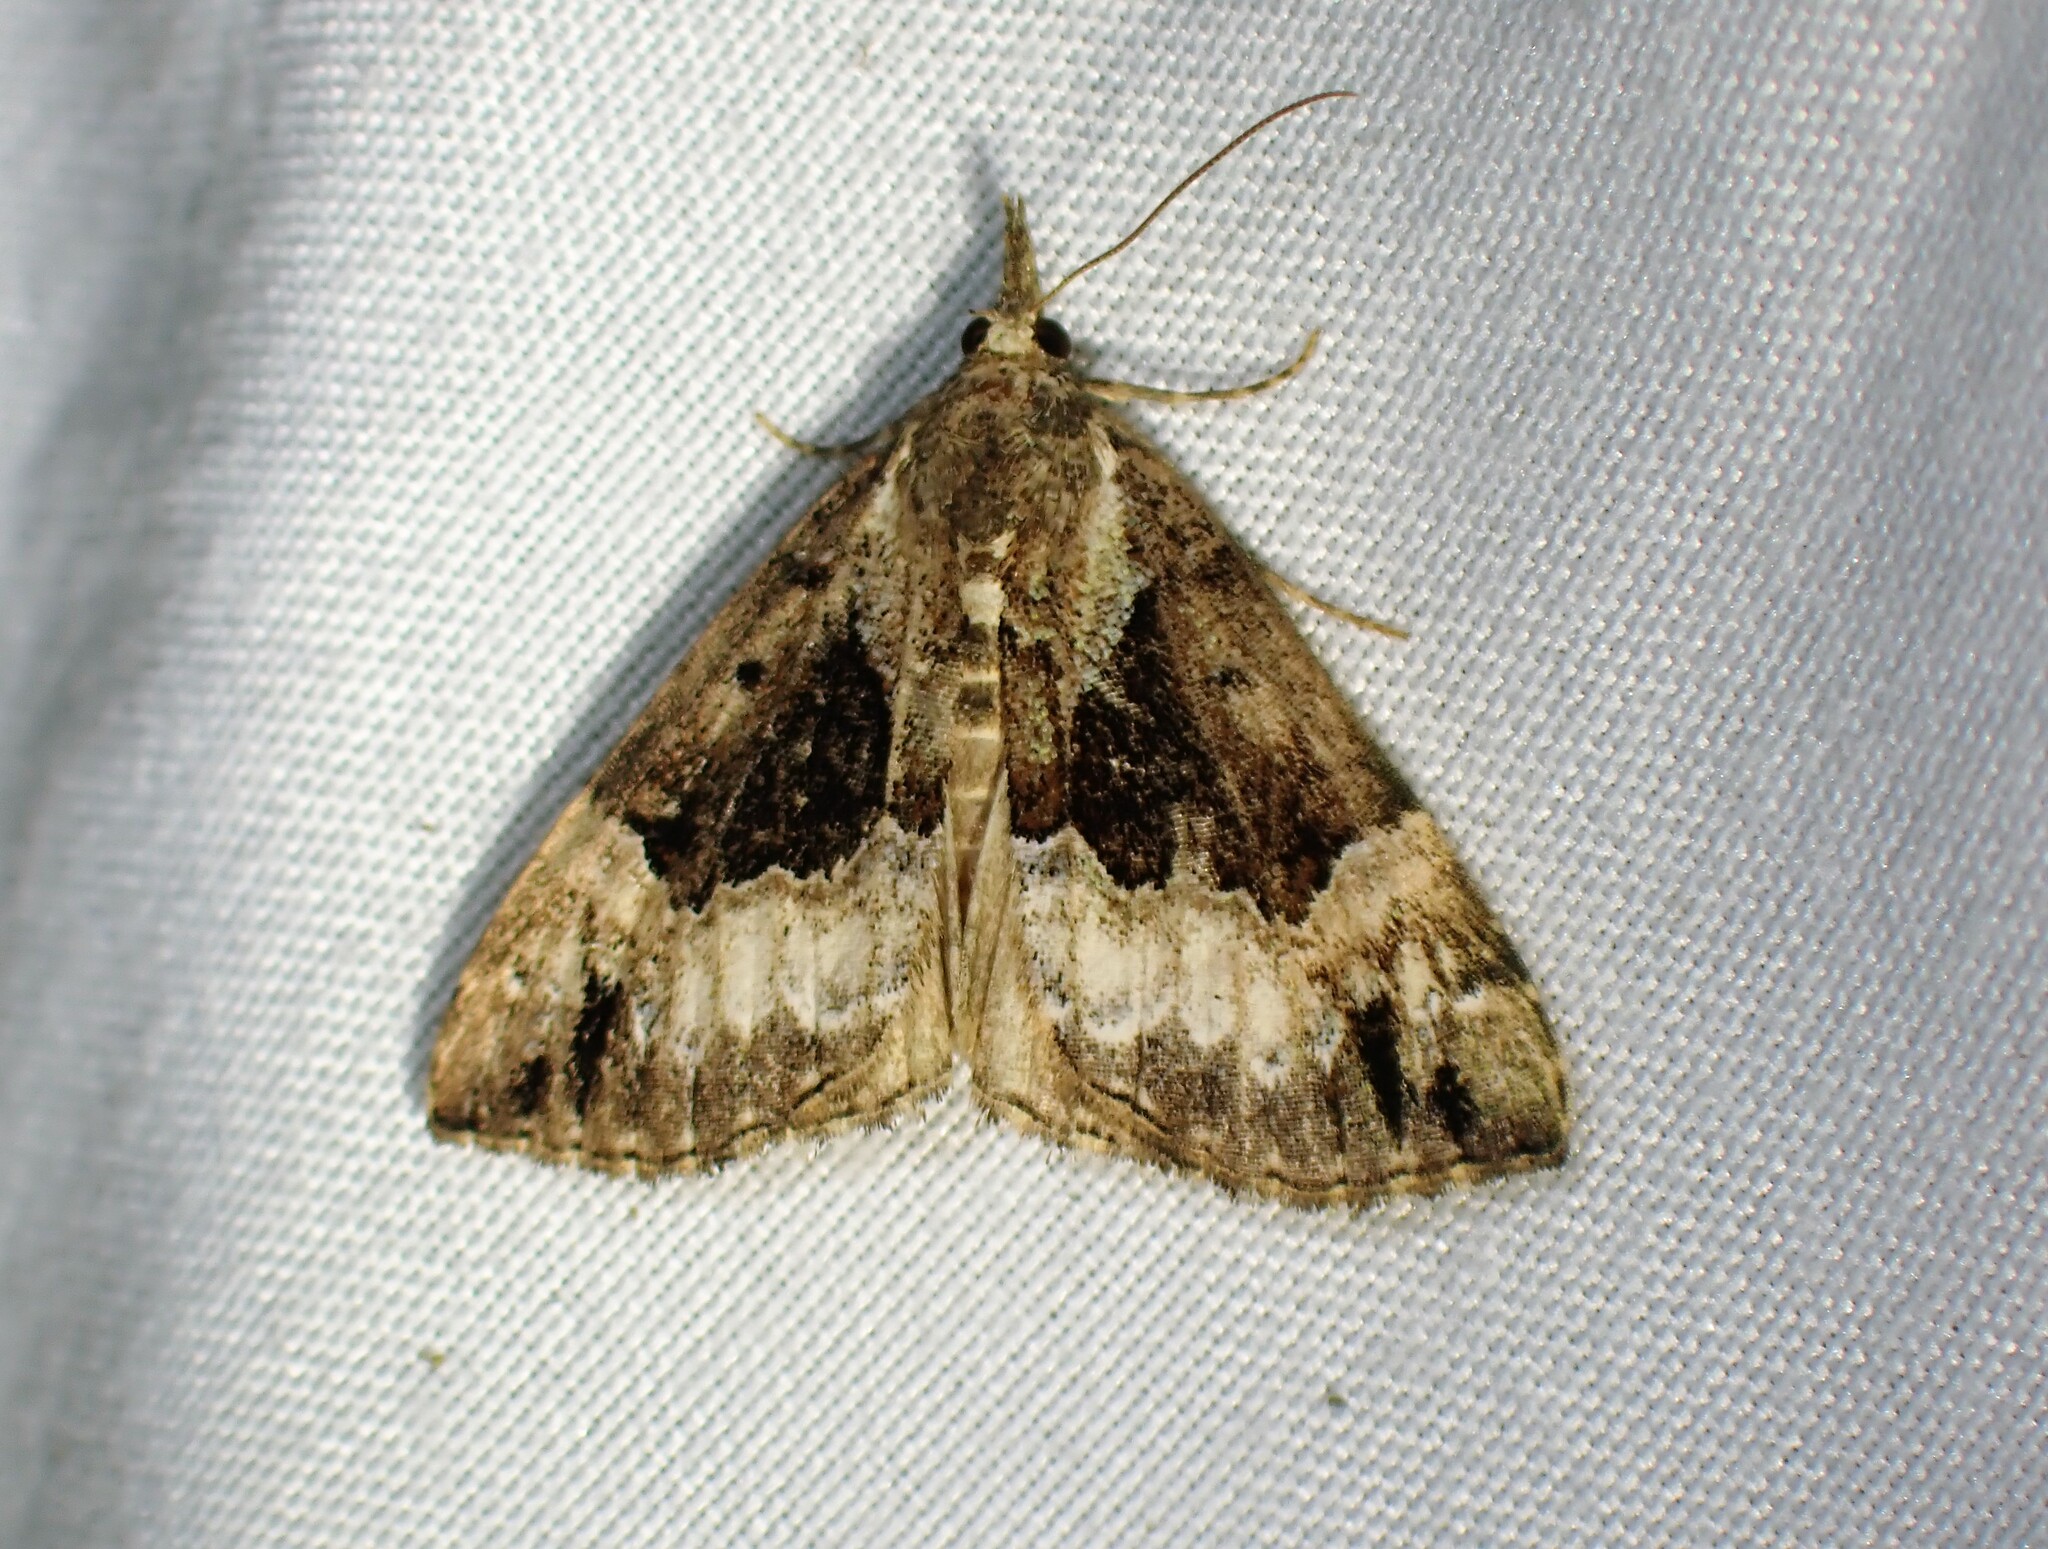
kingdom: Animalia
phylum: Arthropoda
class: Insecta
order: Lepidoptera
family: Erebidae
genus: Hypena
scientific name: Hypena palparia
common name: Mottled bomolocha moth
